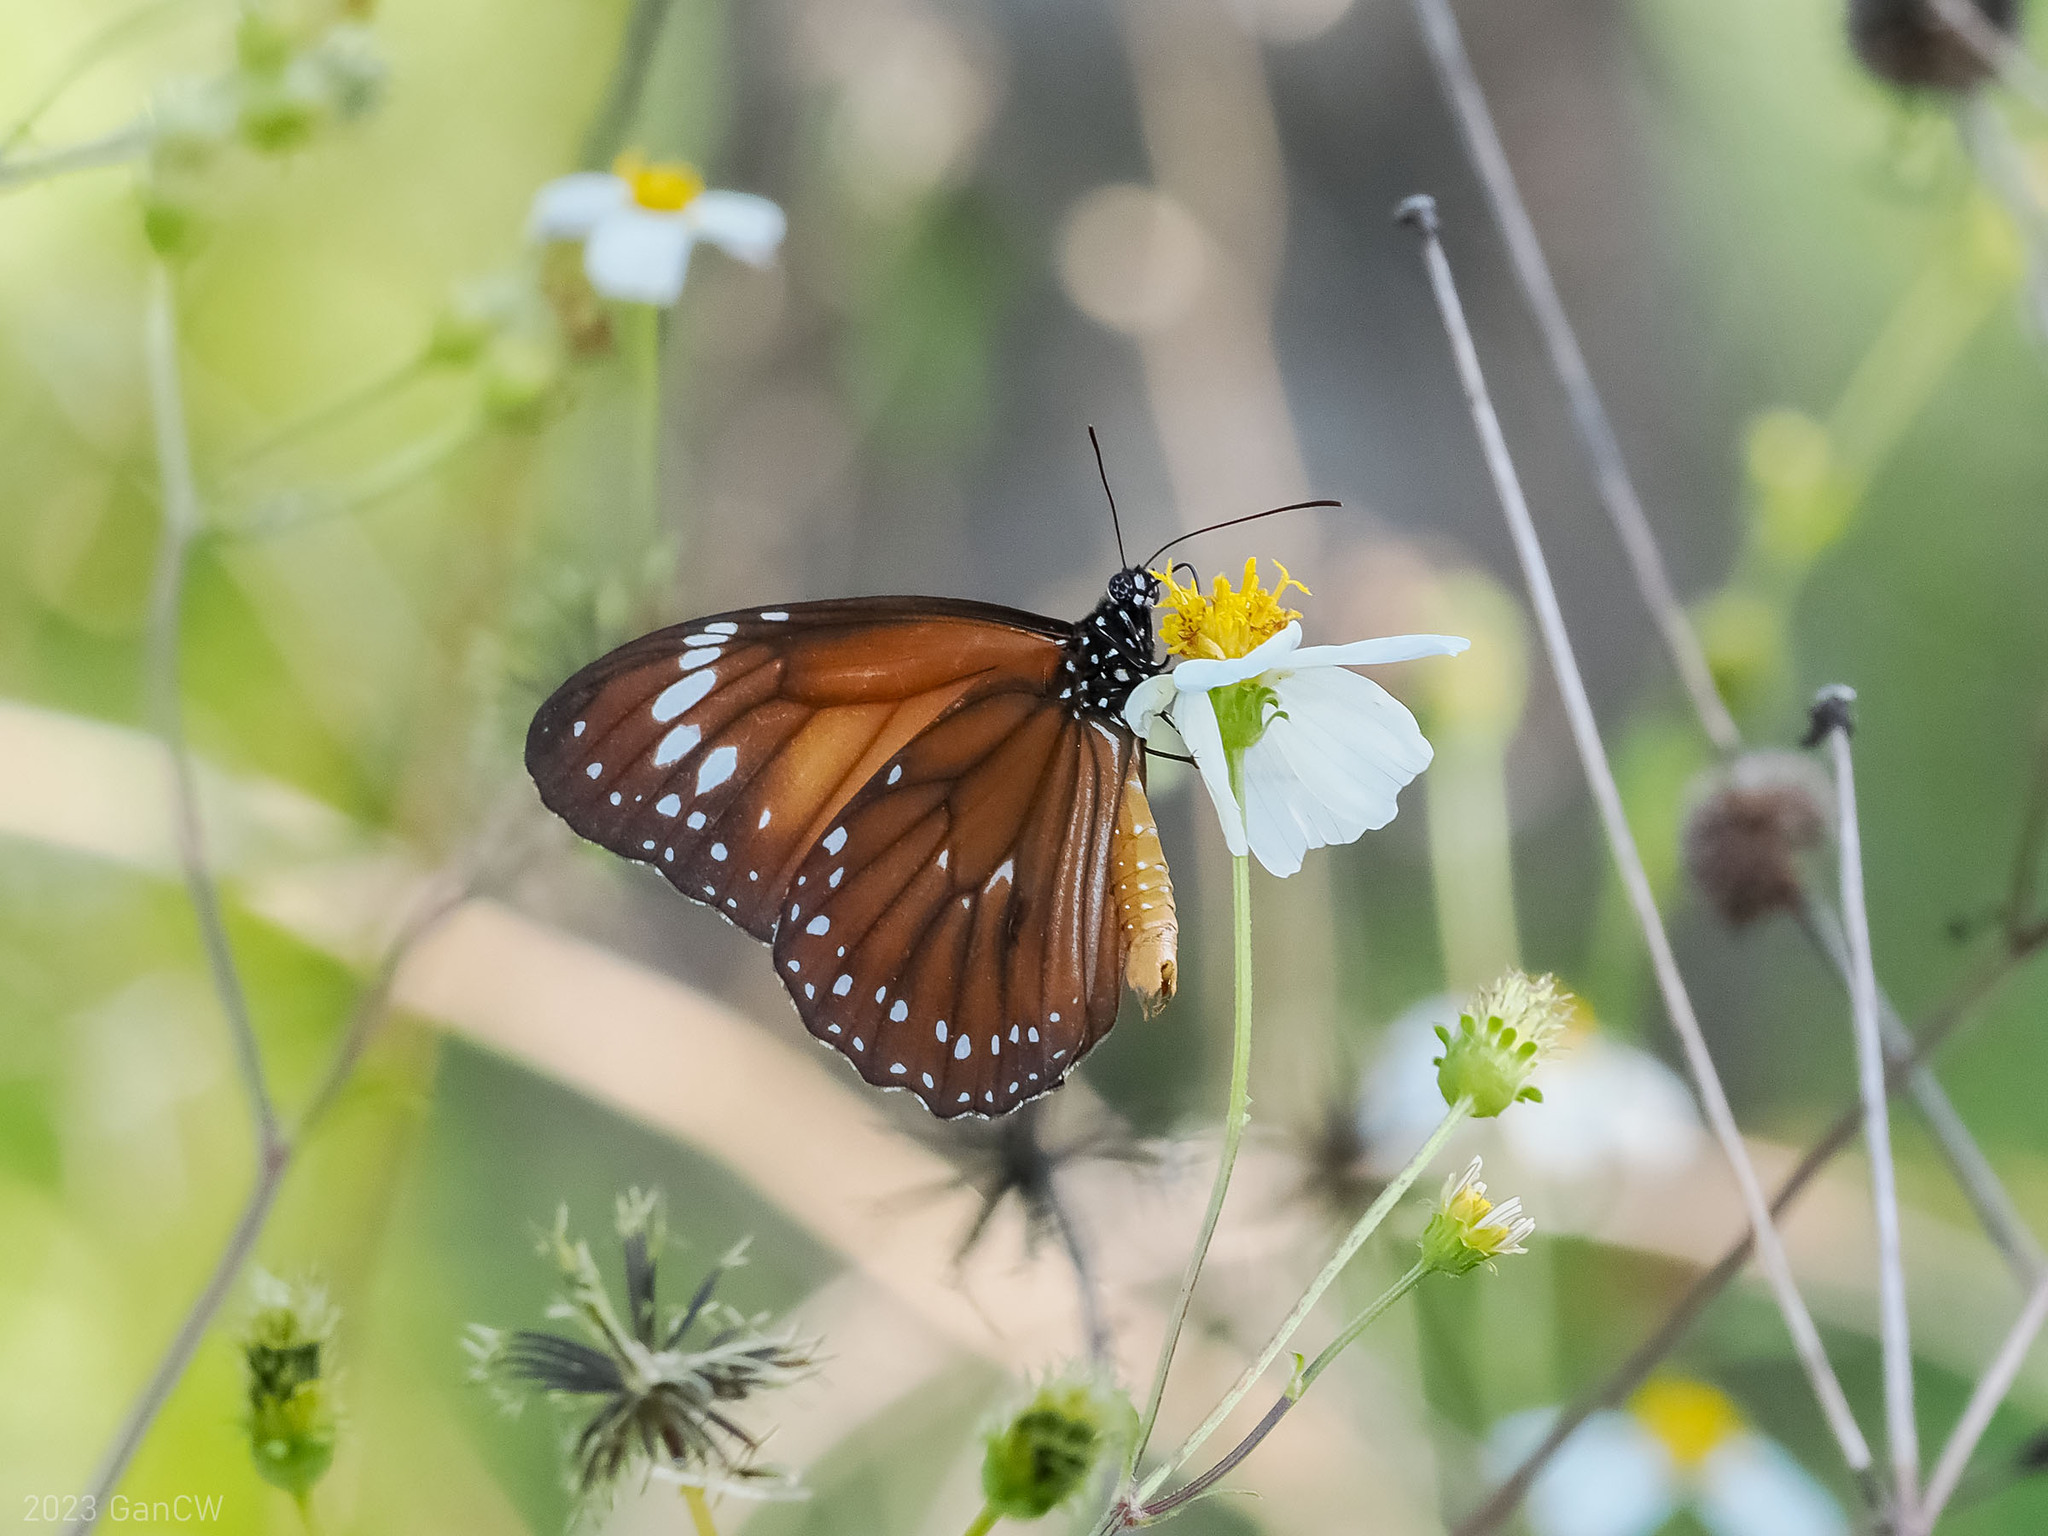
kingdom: Animalia
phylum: Arthropoda
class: Insecta
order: Lepidoptera
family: Nymphalidae
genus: Danaus
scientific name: Danaus affinis
